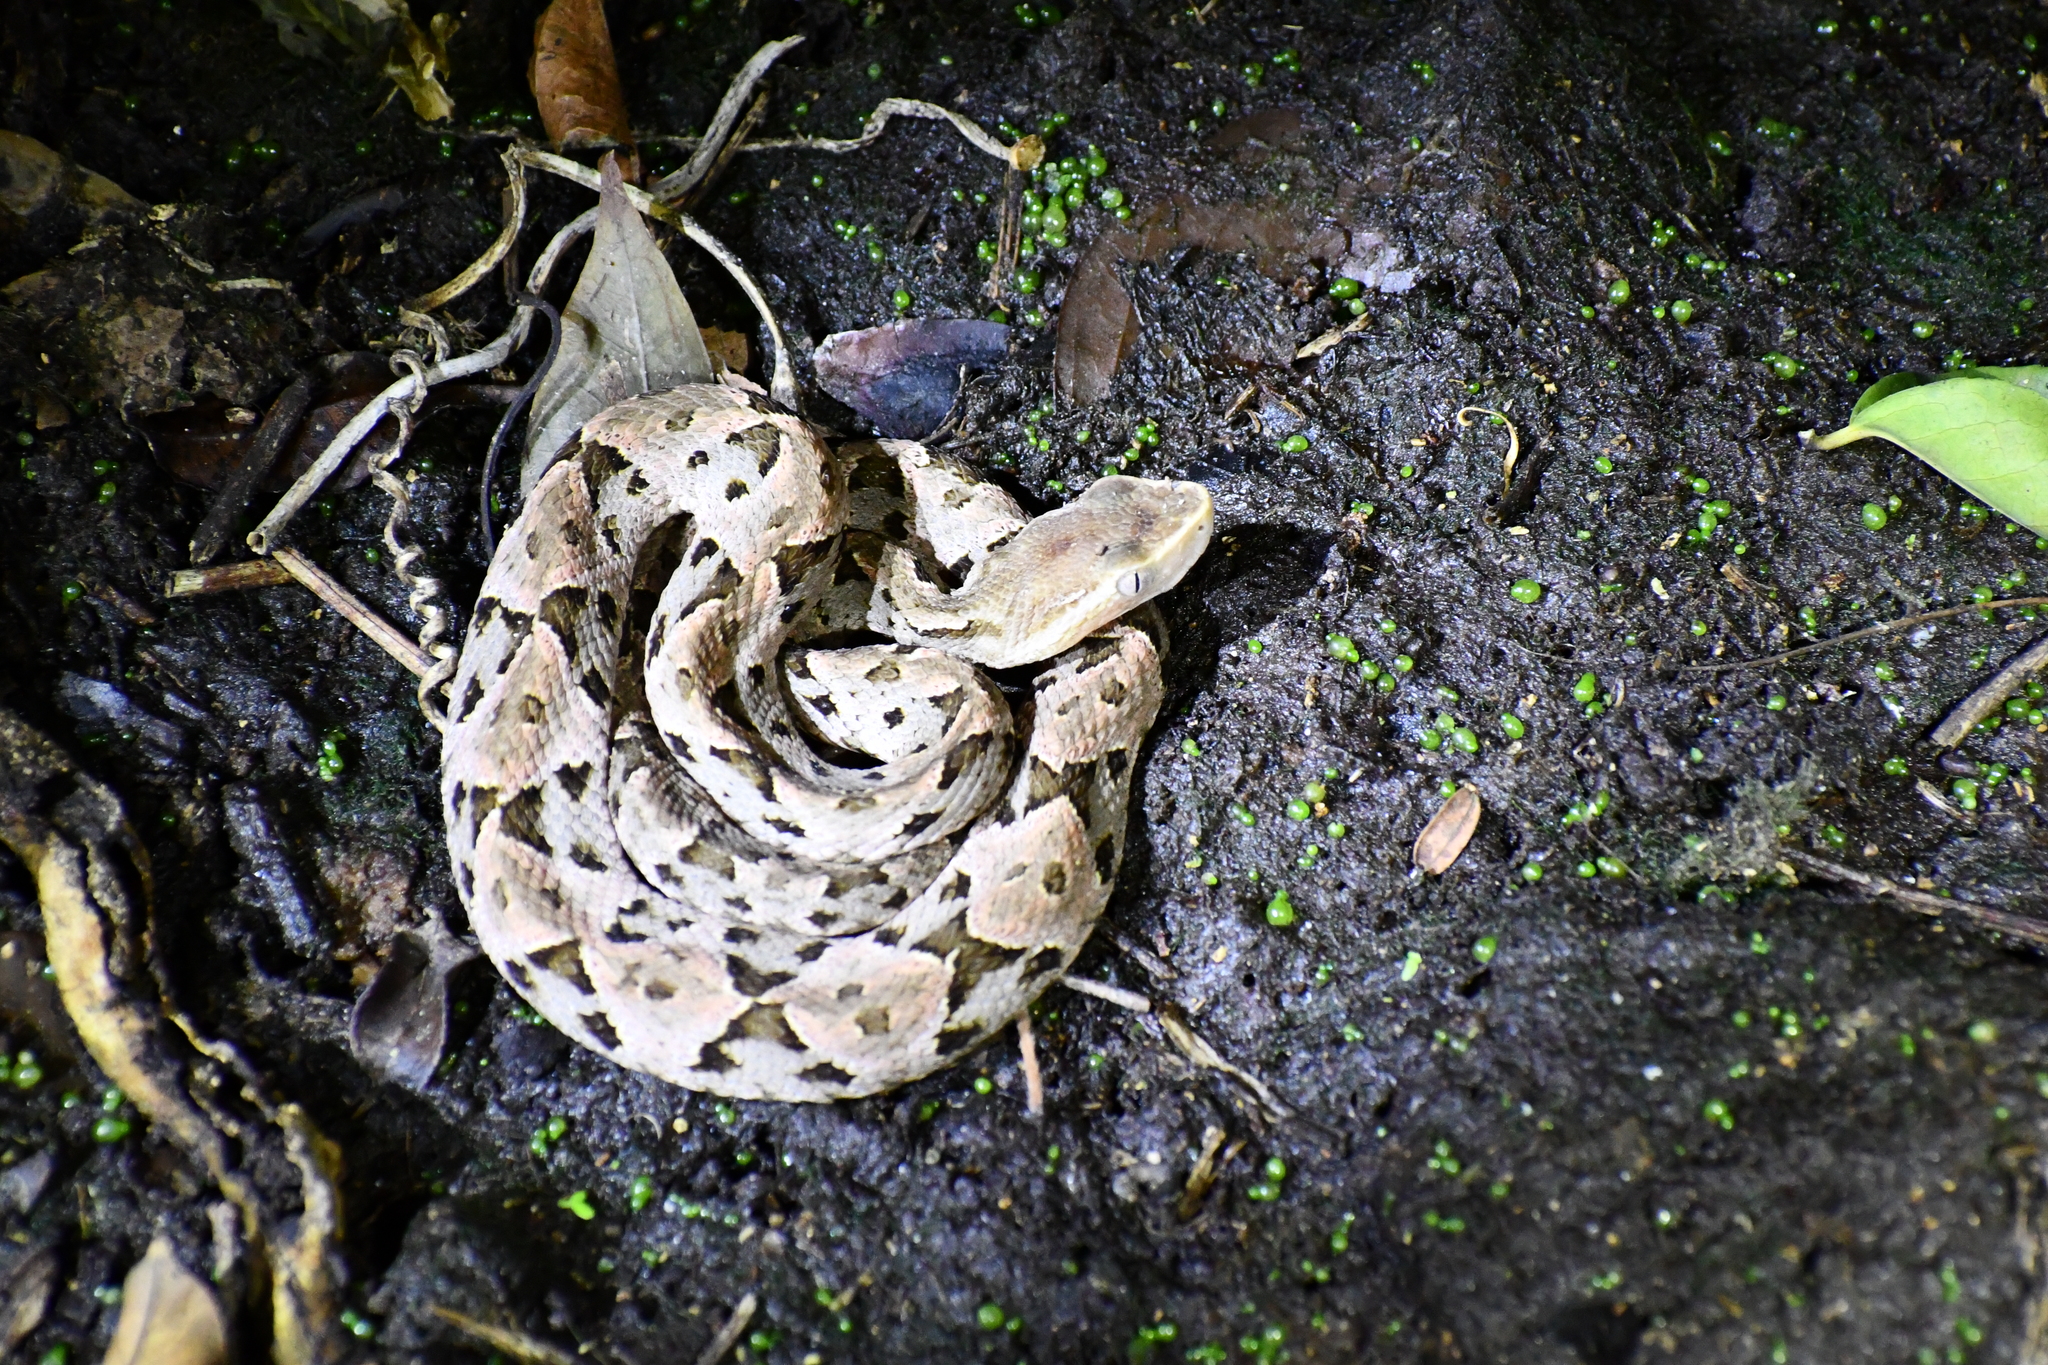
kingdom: Animalia
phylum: Chordata
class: Squamata
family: Viperidae
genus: Bothrops
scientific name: Bothrops asper
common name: Terciopelo
